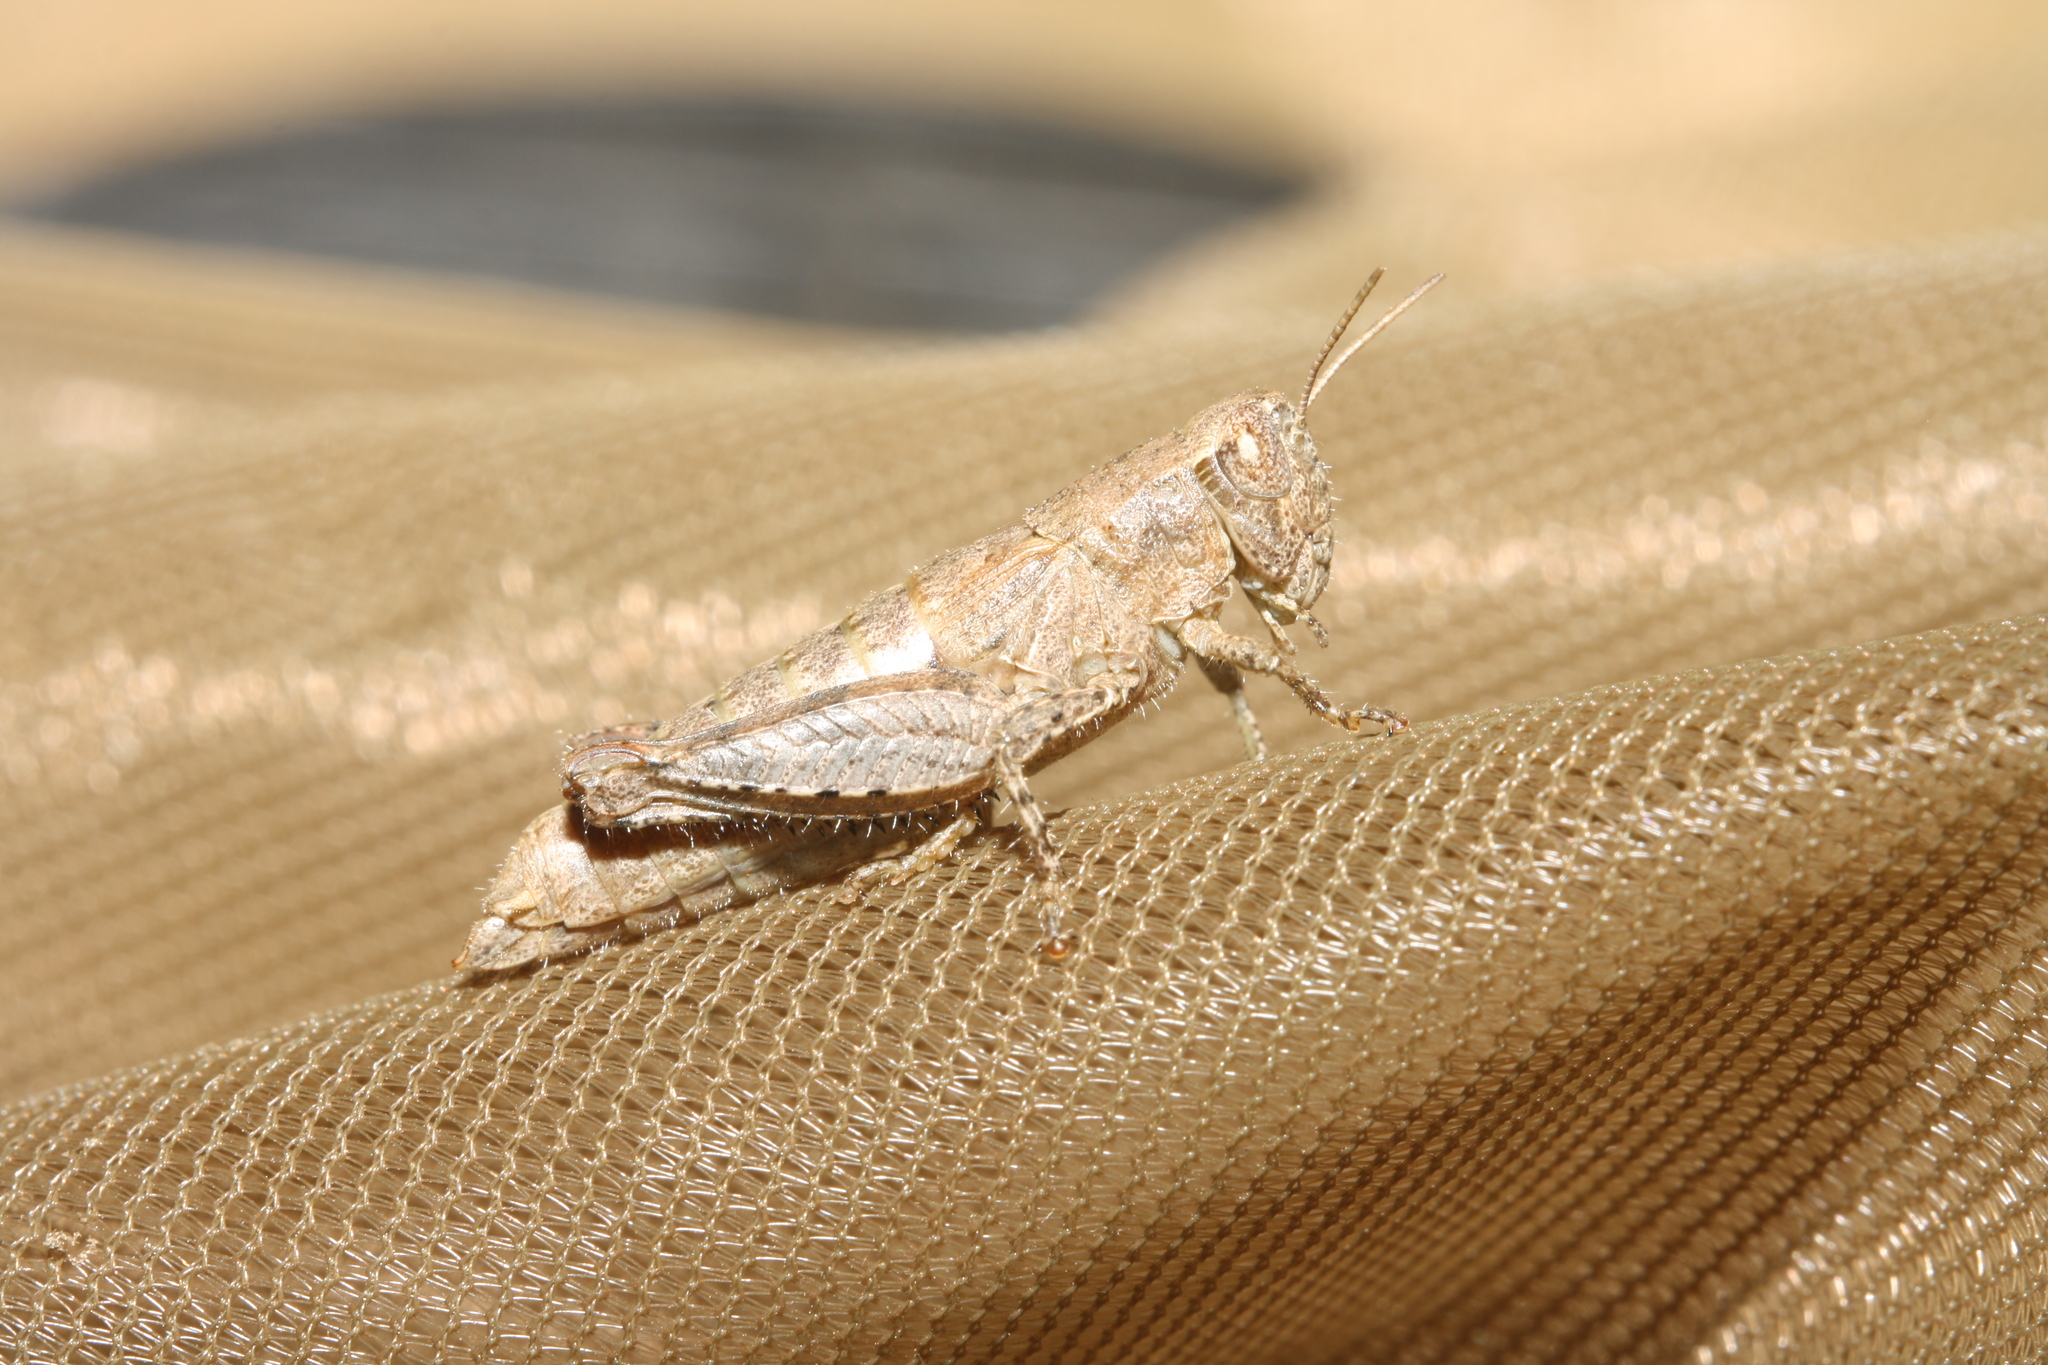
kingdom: Animalia
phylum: Arthropoda
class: Insecta
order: Orthoptera
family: Acrididae
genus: Pezotettix
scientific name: Pezotettix giornae
